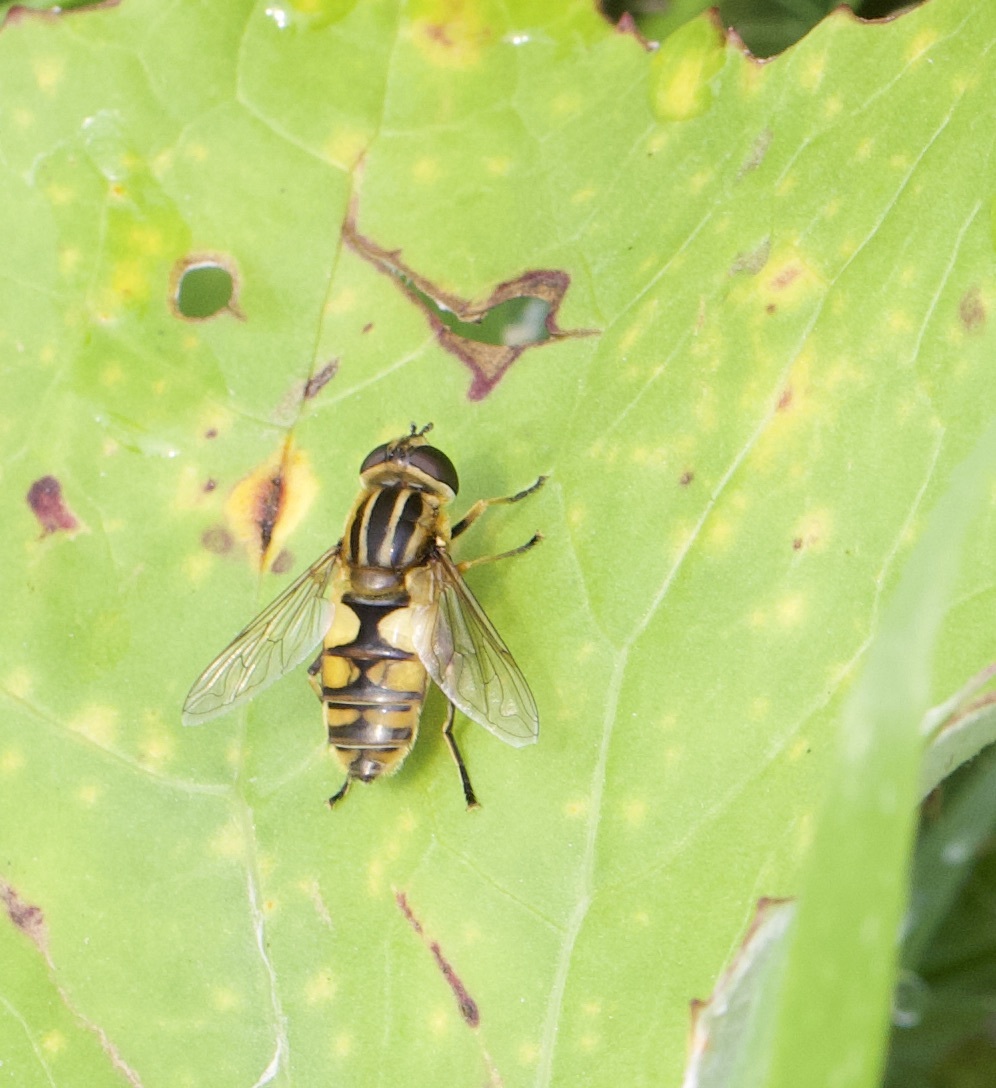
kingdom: Animalia
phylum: Arthropoda
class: Insecta
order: Diptera
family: Syrphidae
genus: Helophilus
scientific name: Helophilus hybridus
